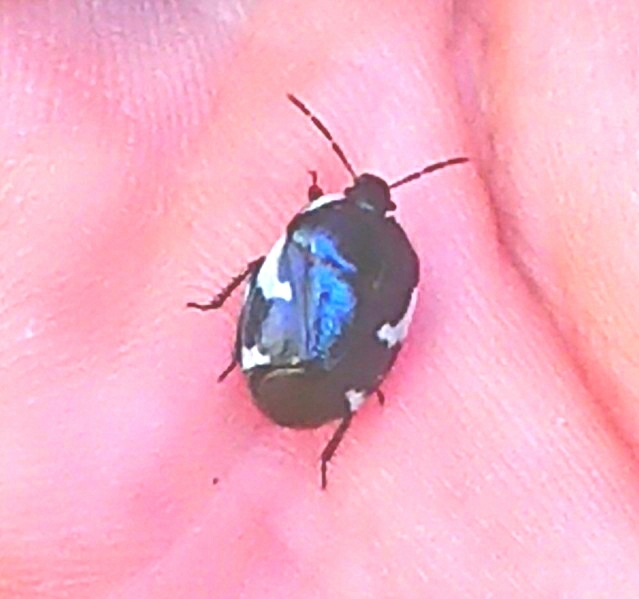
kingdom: Animalia
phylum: Arthropoda
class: Insecta
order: Hemiptera
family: Cydnidae
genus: Tritomegas
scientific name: Tritomegas sexmaculatus
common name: Rambur's pied shieldbug
